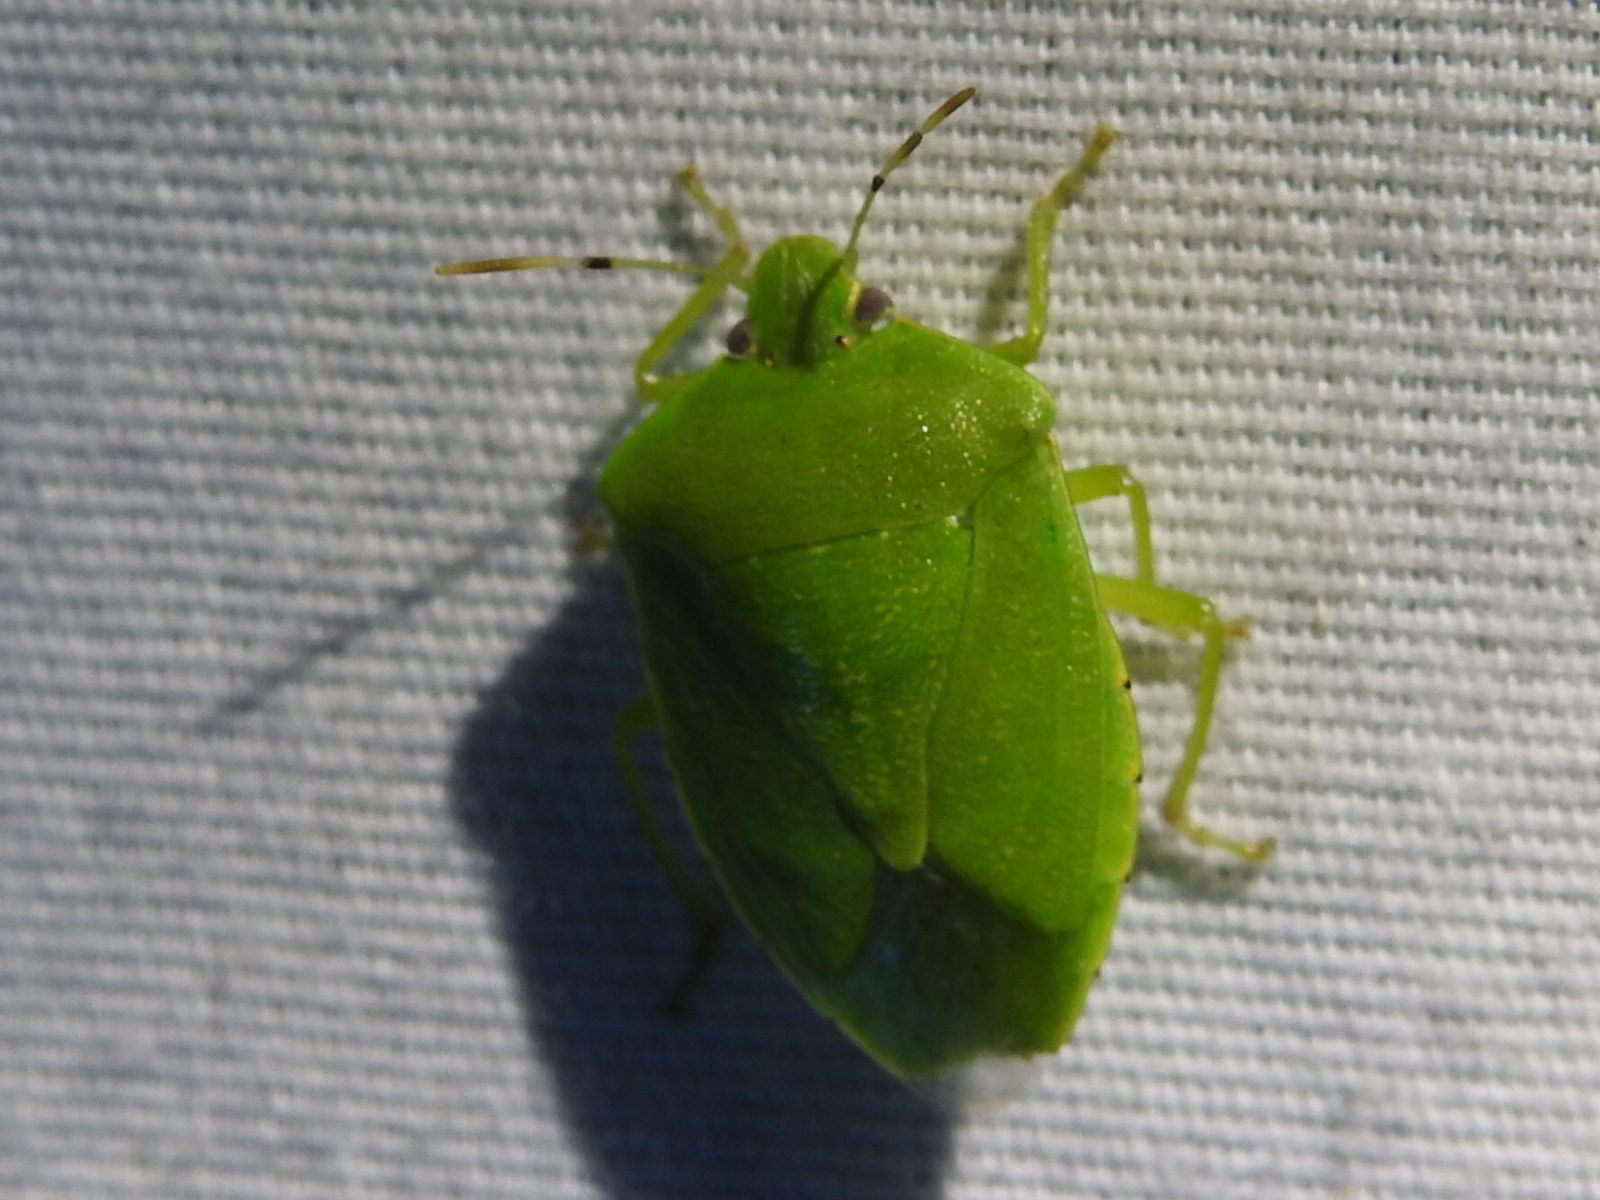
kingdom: Animalia
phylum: Arthropoda
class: Insecta
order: Hemiptera
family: Pentatomidae
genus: Chinavia
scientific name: Chinavia hilaris
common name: Green stink bug
